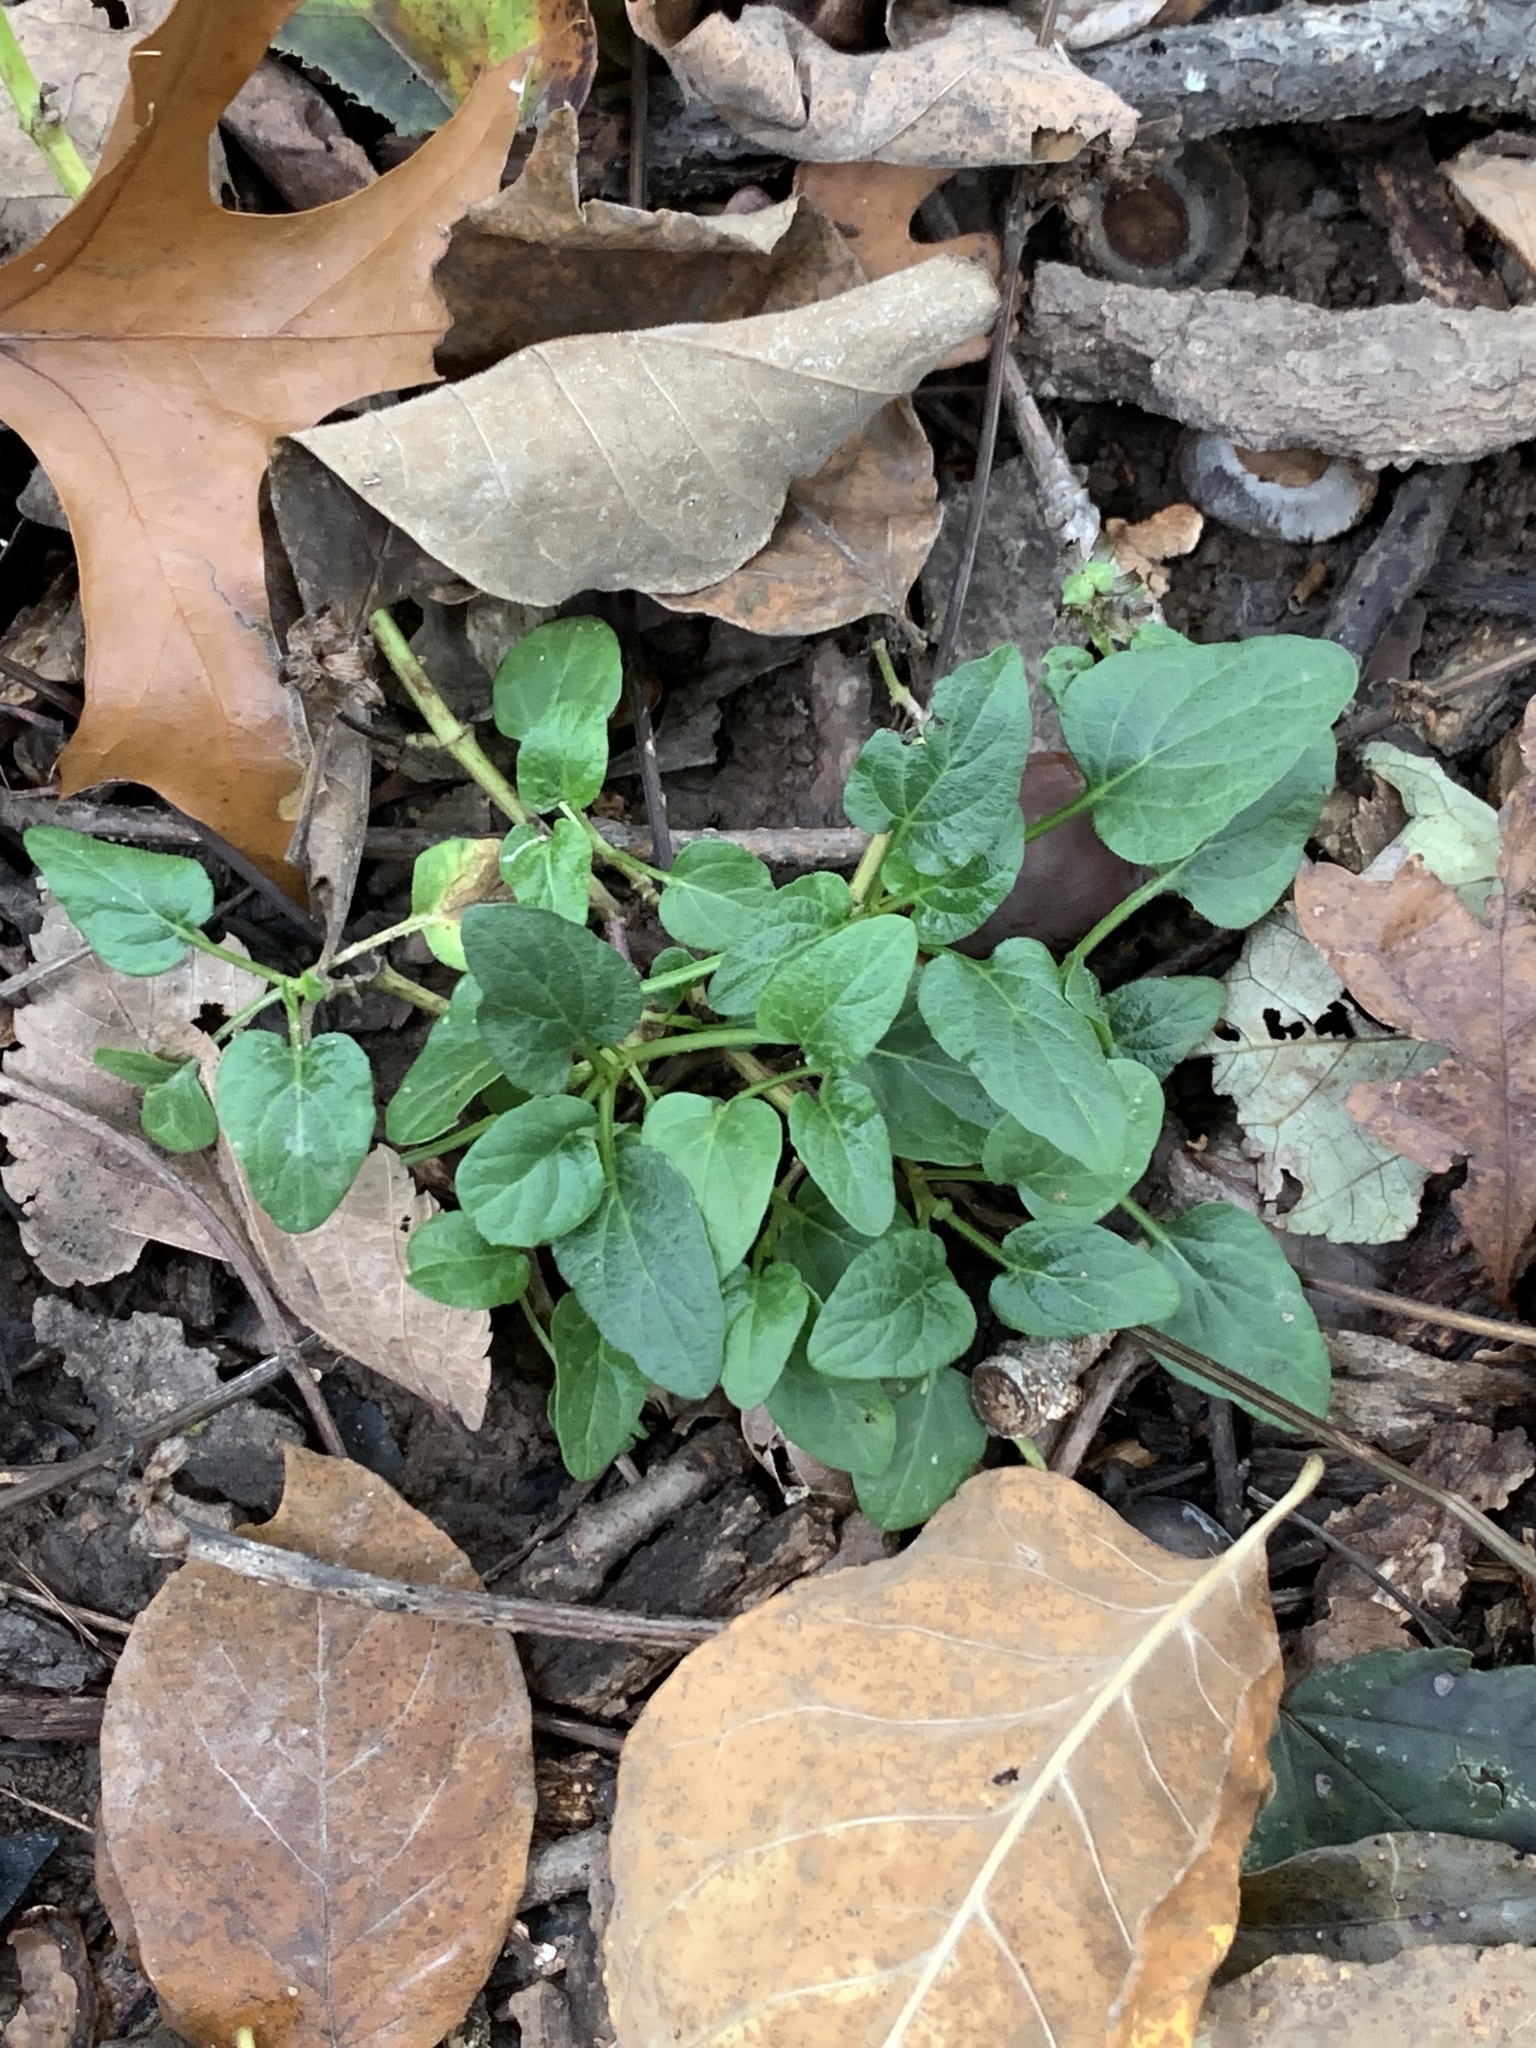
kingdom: Plantae
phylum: Tracheophyta
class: Magnoliopsida
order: Lamiales
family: Lamiaceae
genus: Prunella
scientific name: Prunella vulgaris
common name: Heal-all
